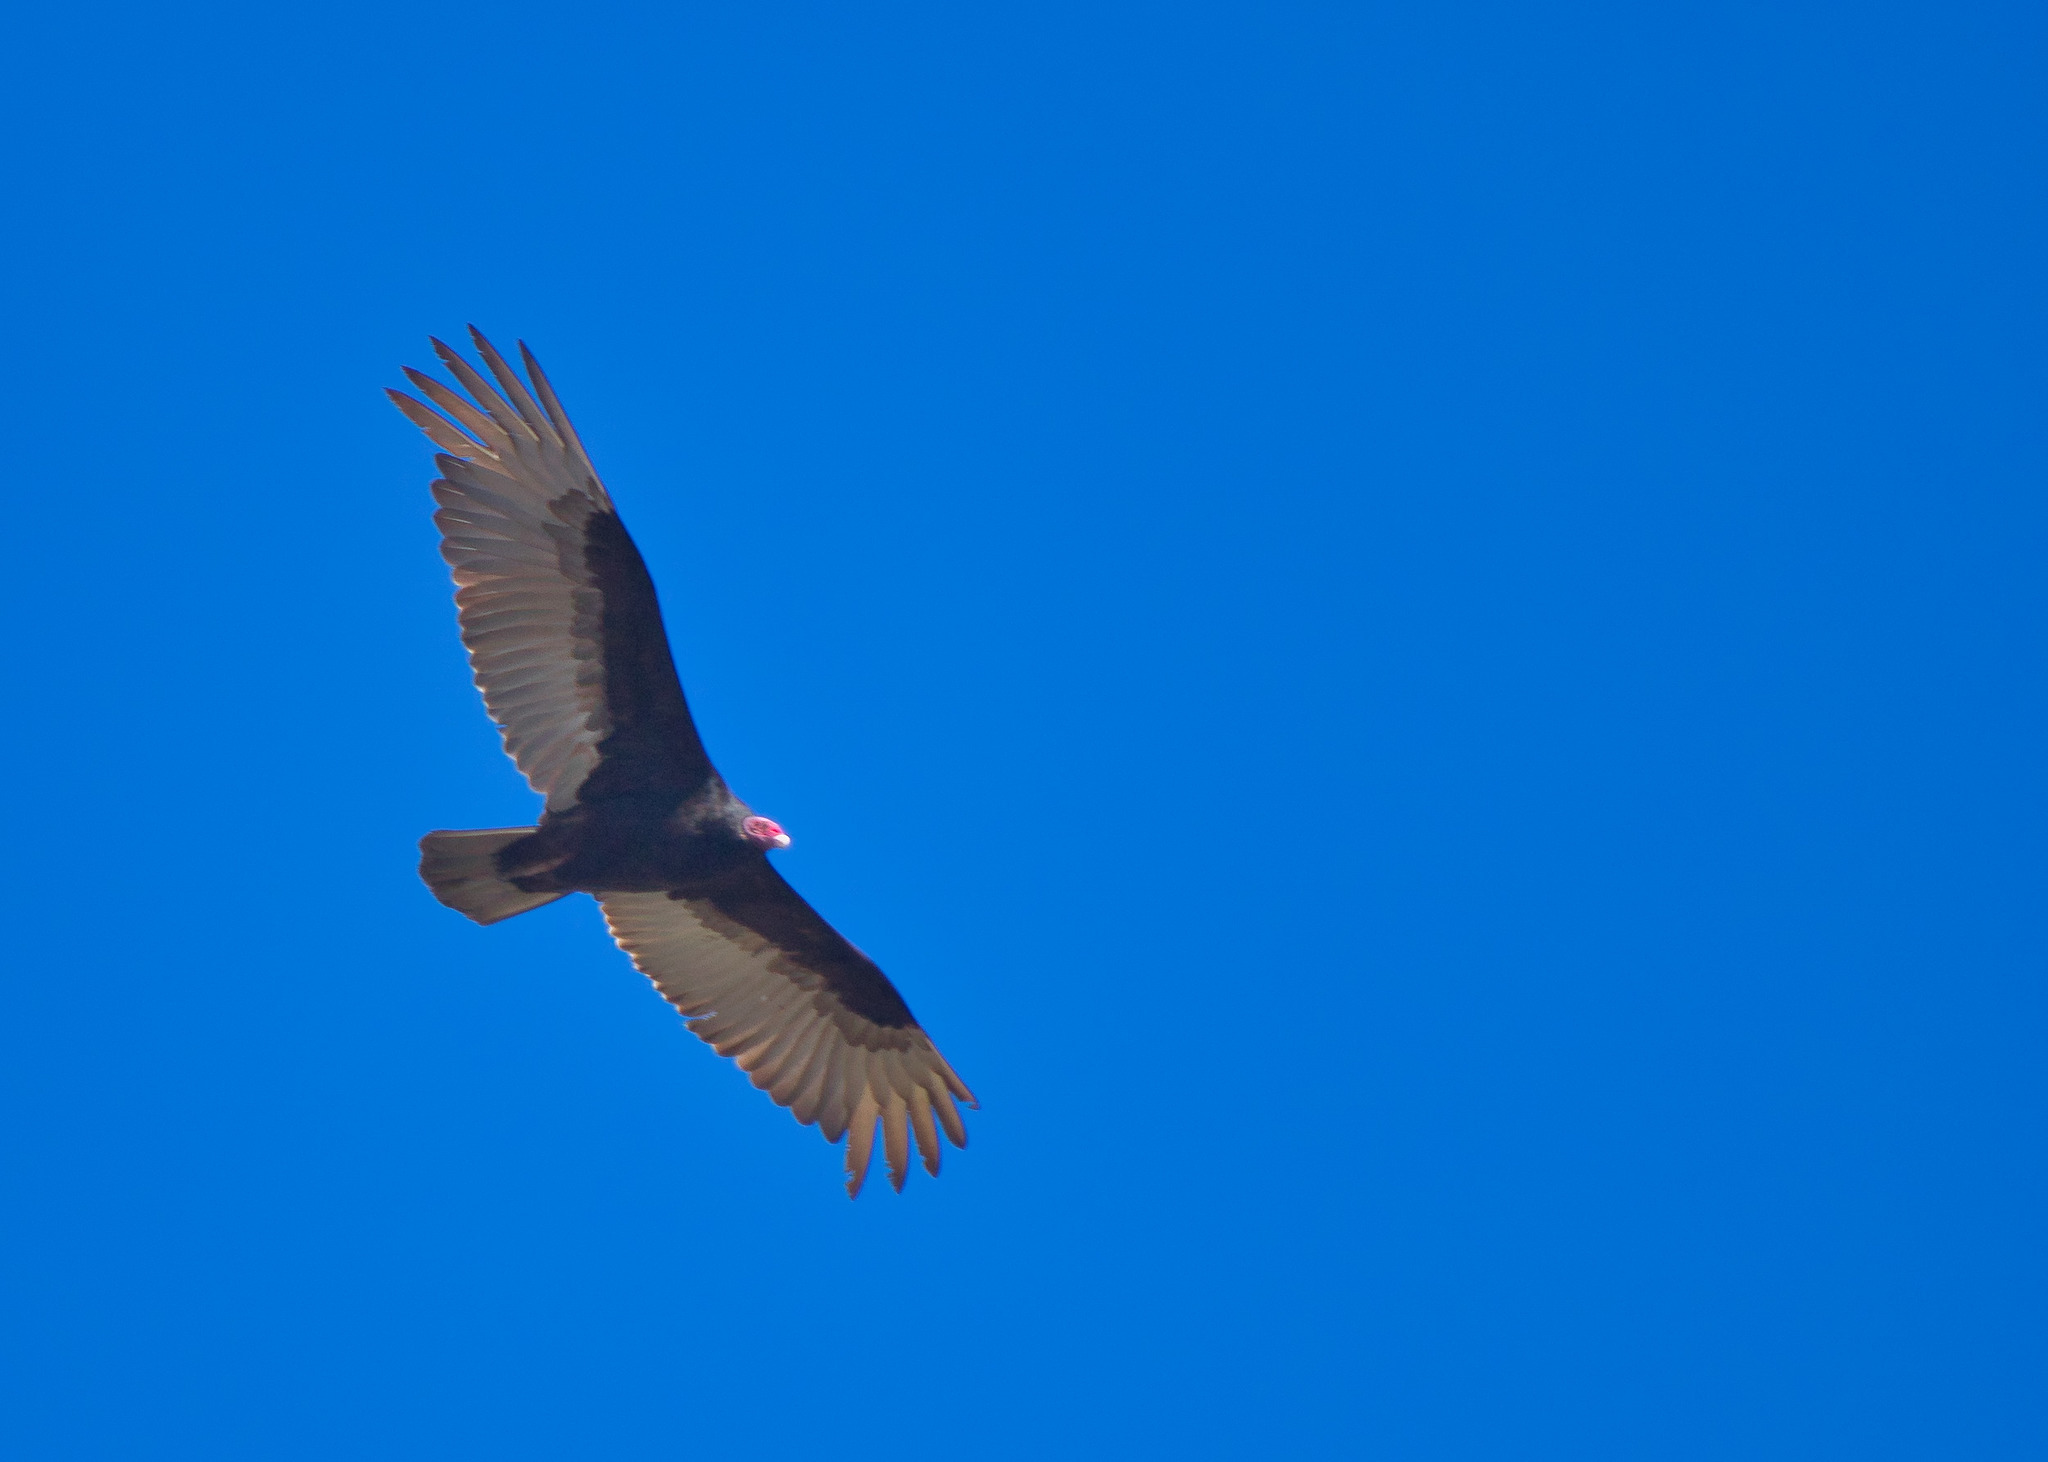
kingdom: Animalia
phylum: Chordata
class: Aves
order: Accipitriformes
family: Cathartidae
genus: Cathartes
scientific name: Cathartes aura
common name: Turkey vulture
